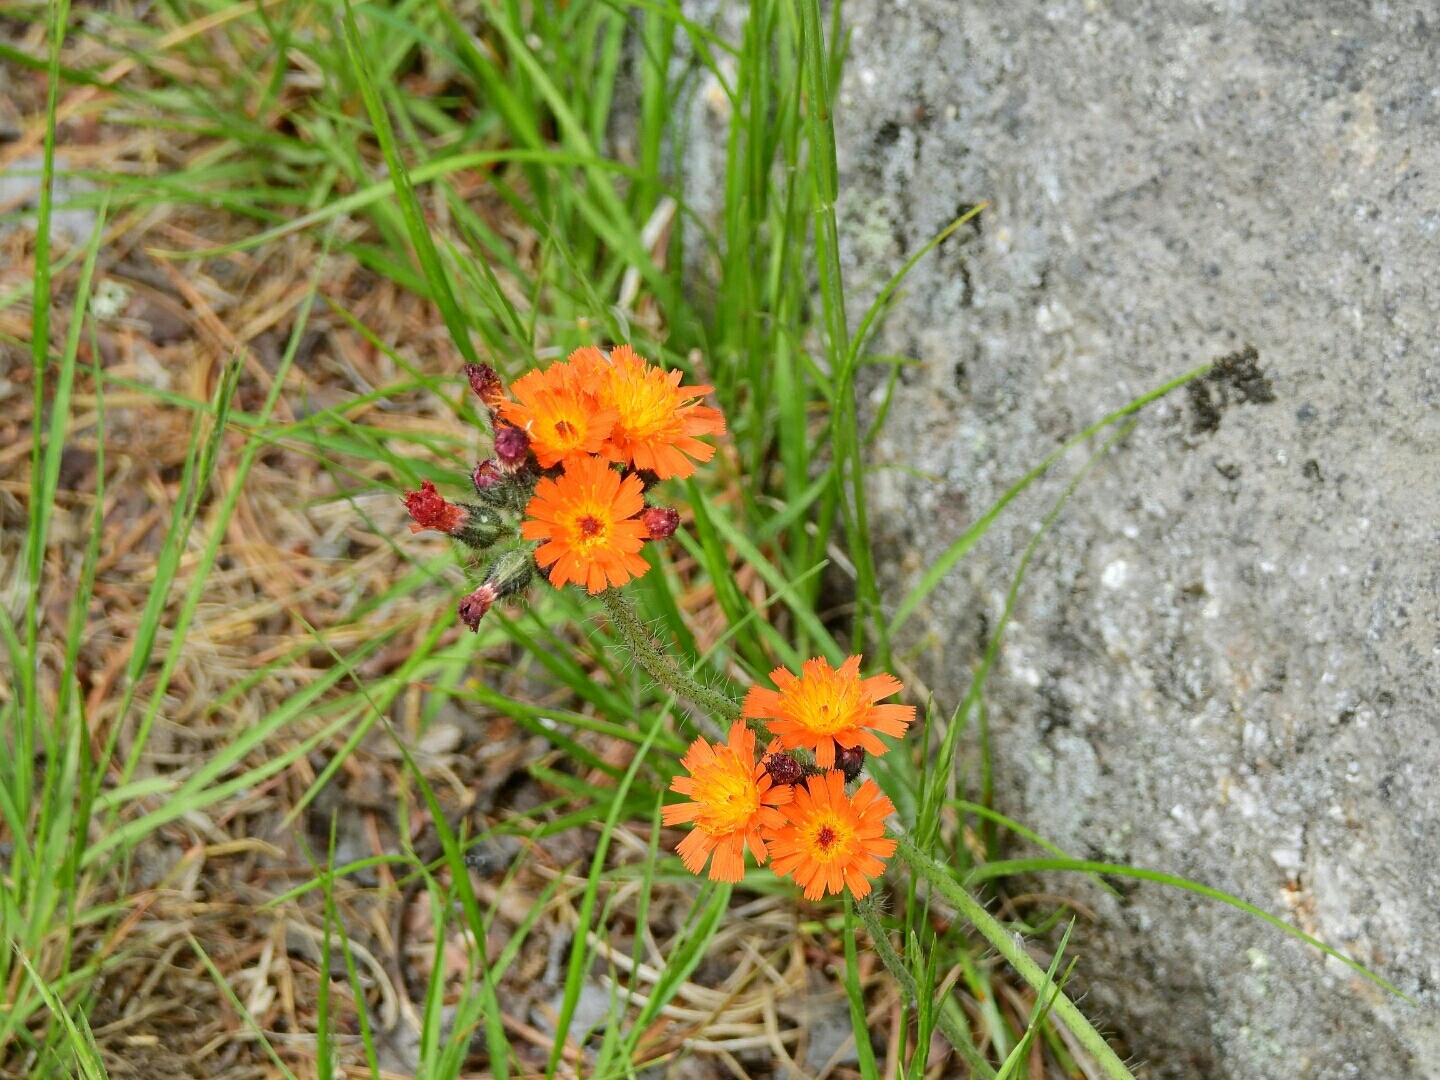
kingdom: Plantae
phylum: Tracheophyta
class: Magnoliopsida
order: Asterales
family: Asteraceae
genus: Pilosella
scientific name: Pilosella aurantiaca
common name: Fox-and-cubs
